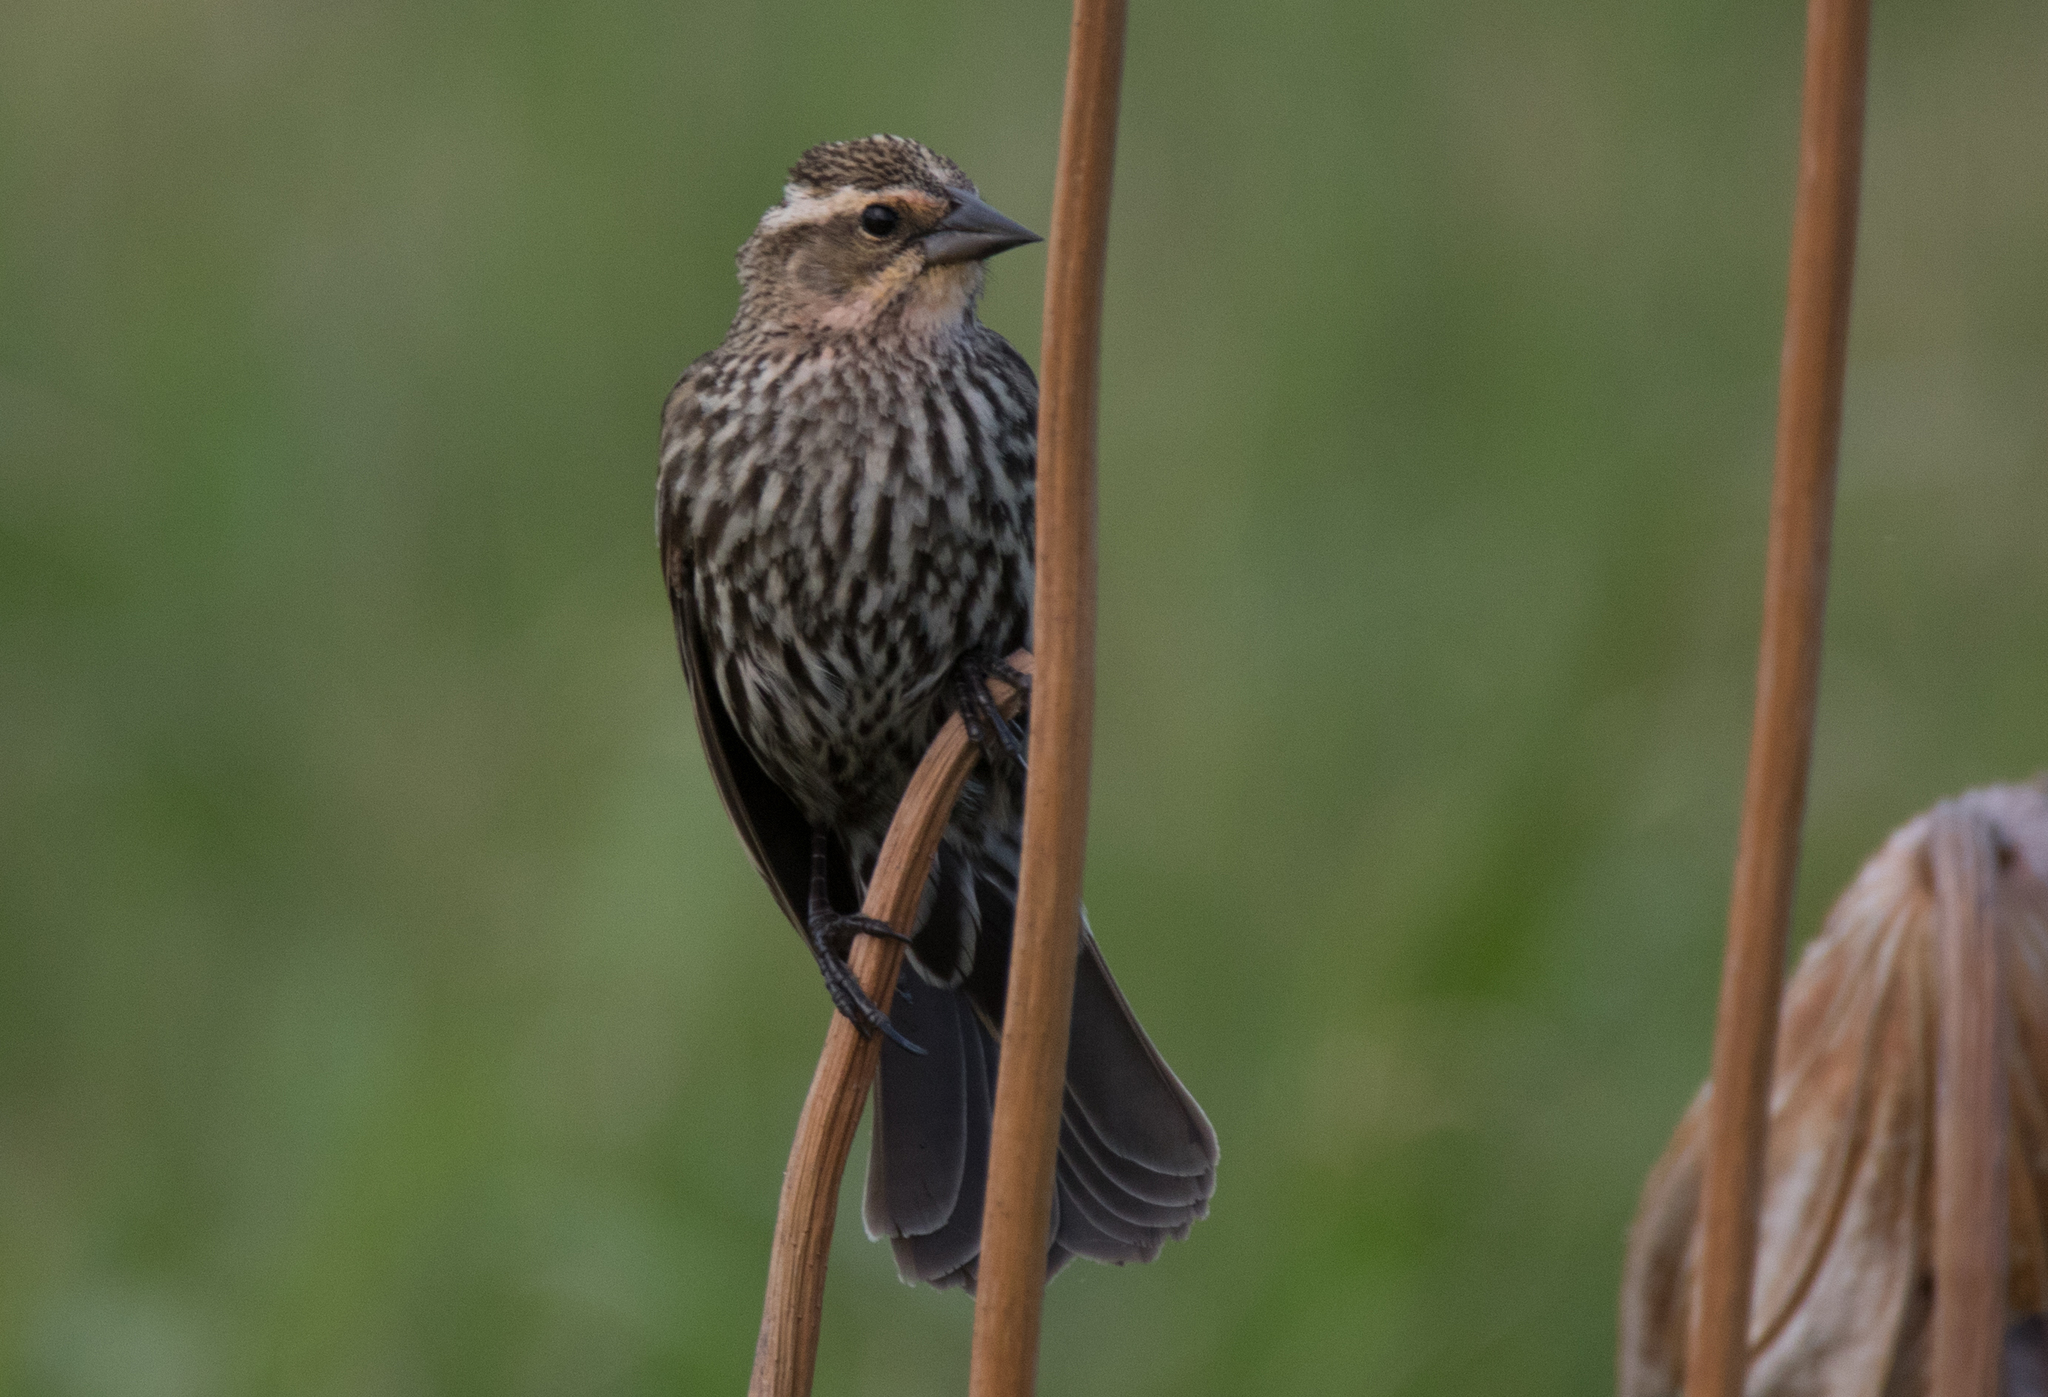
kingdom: Animalia
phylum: Chordata
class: Aves
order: Passeriformes
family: Icteridae
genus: Agelaius
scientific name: Agelaius phoeniceus
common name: Red-winged blackbird
